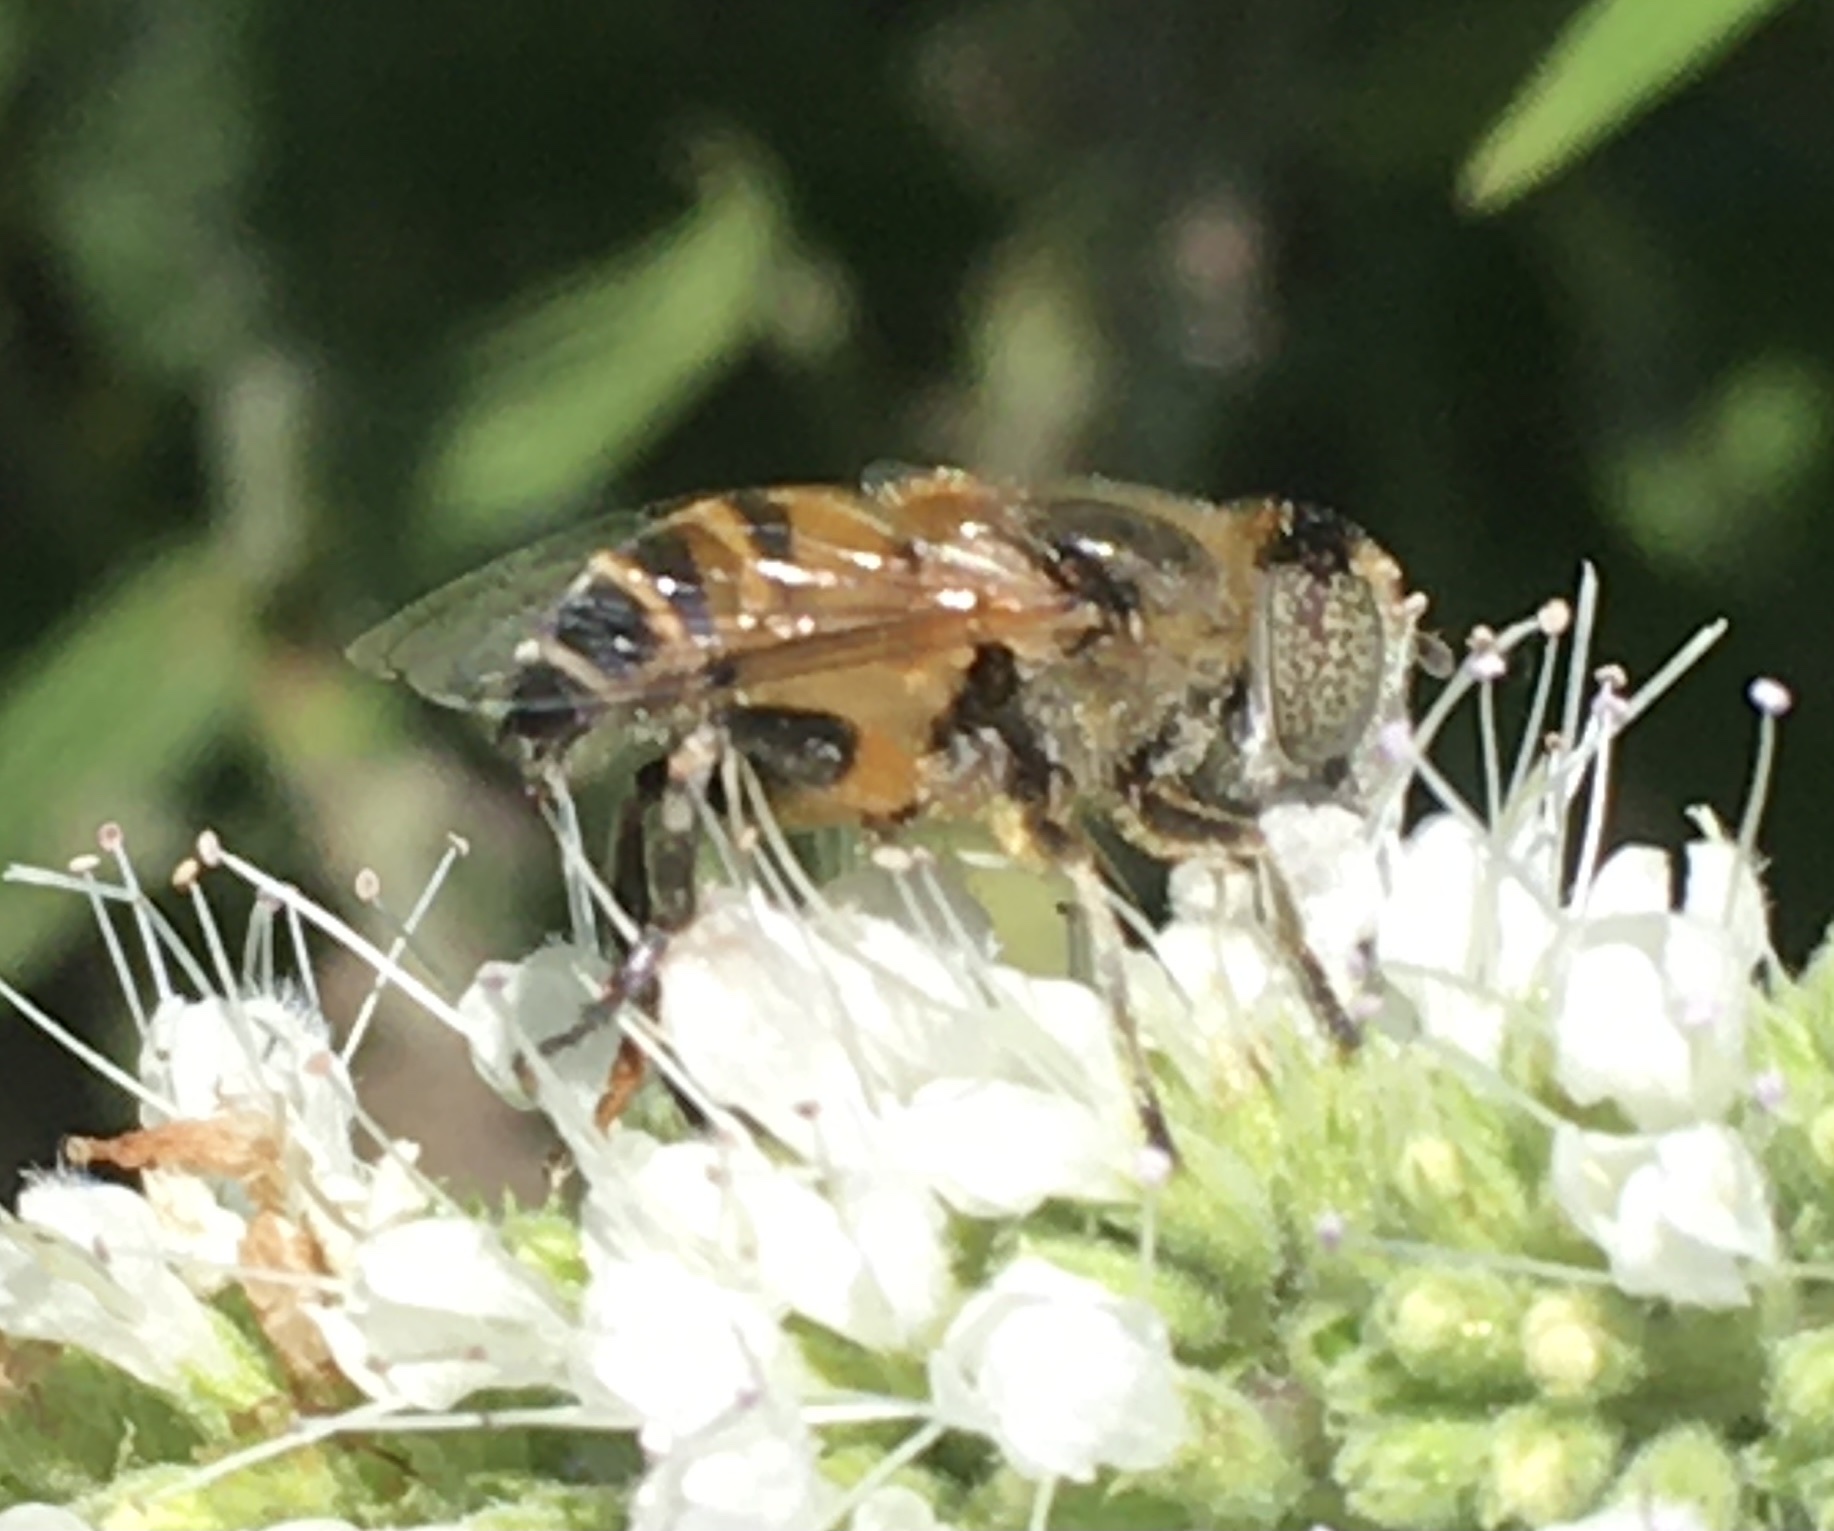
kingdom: Animalia
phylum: Arthropoda
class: Insecta
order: Diptera
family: Syrphidae
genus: Eristalinus
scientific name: Eristalinus modestus
